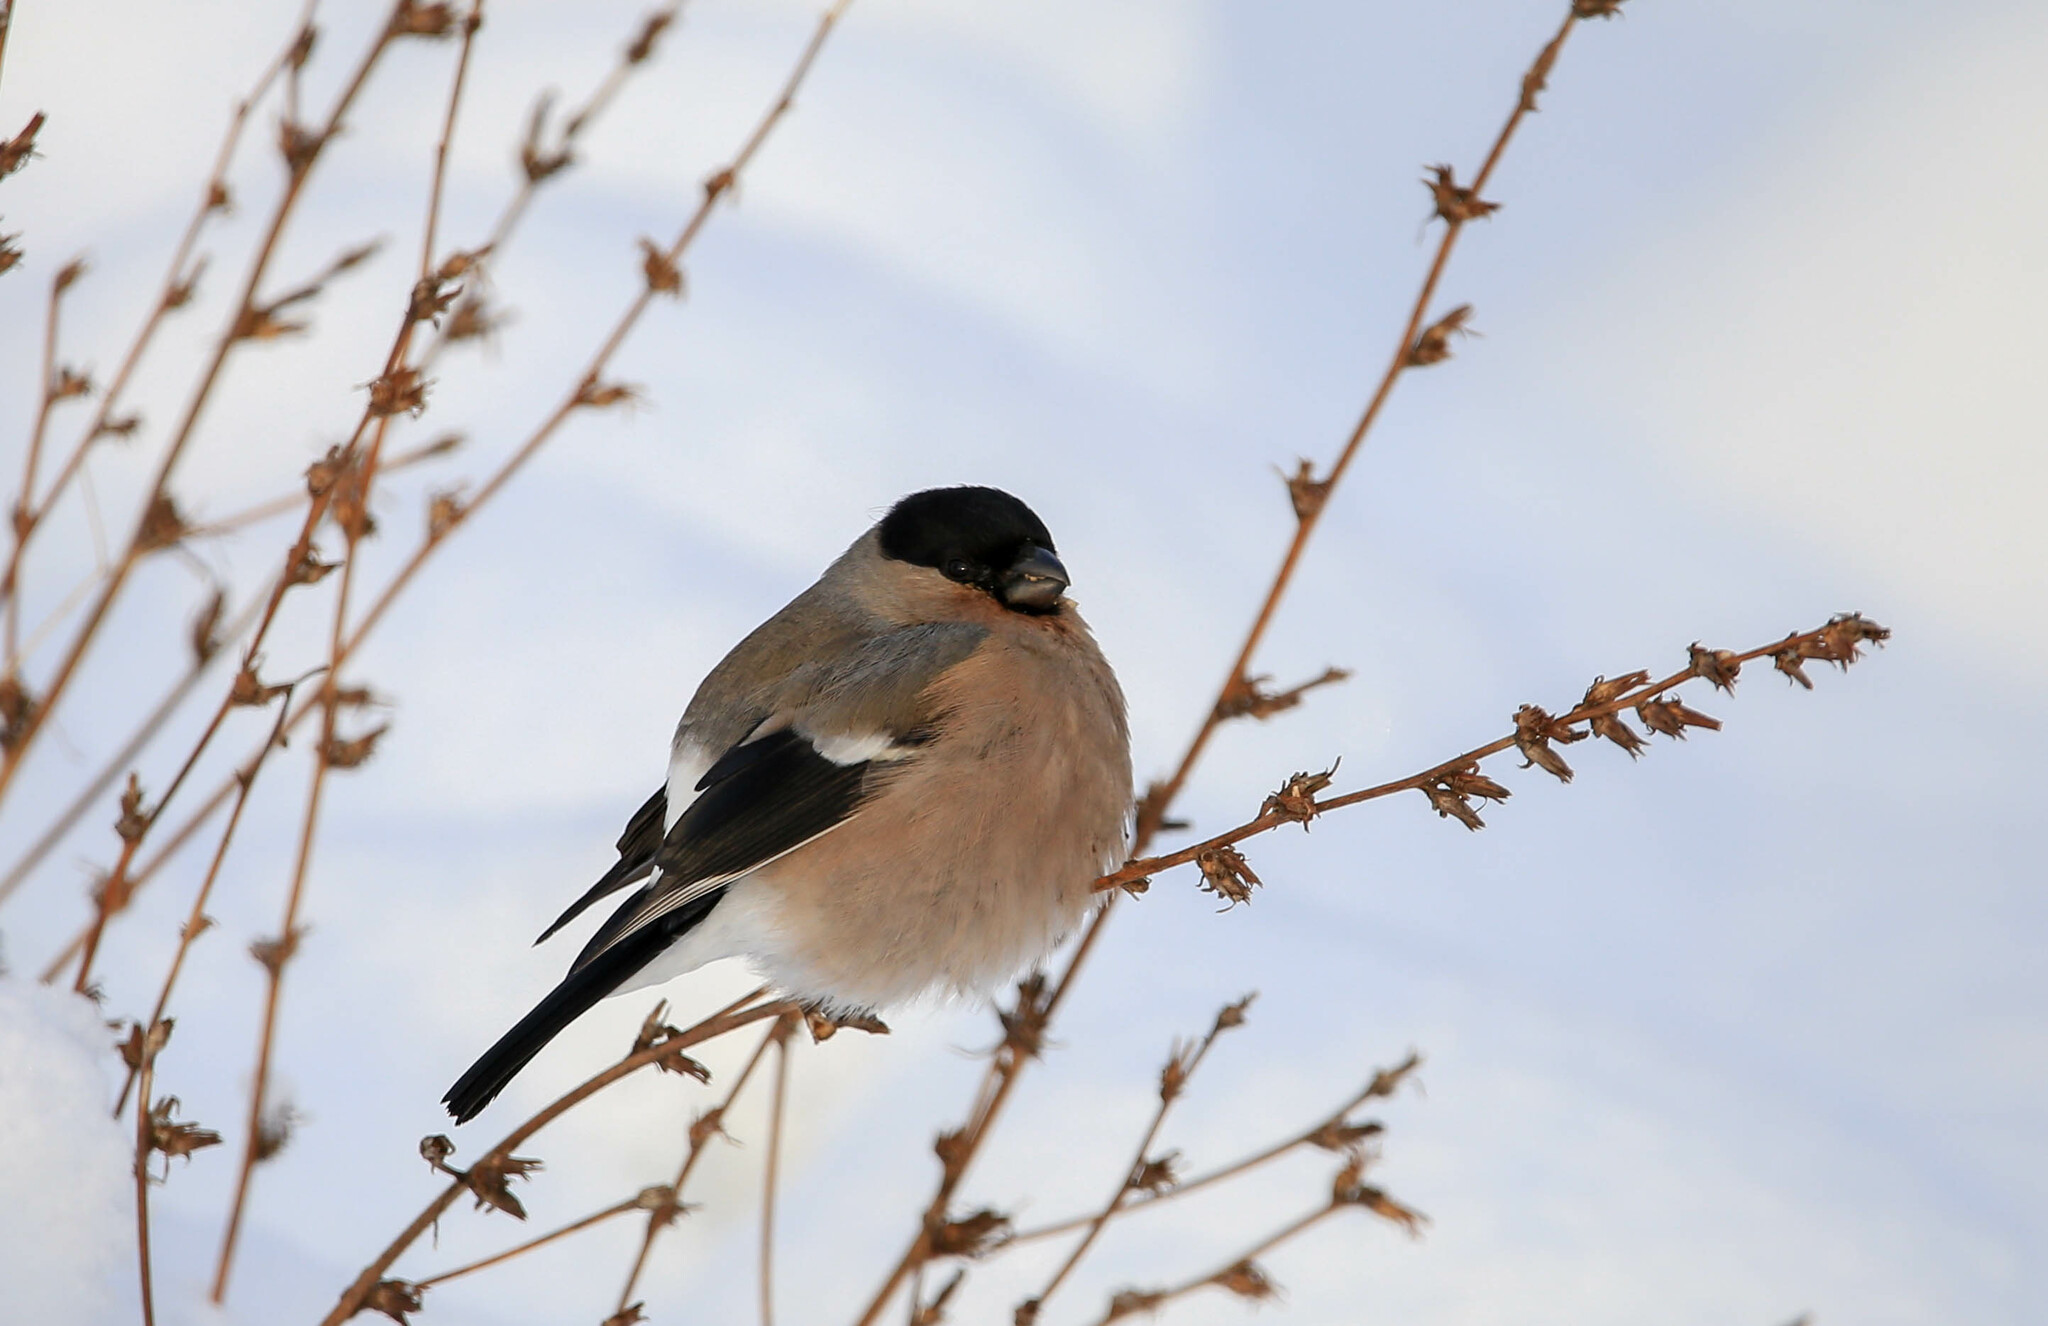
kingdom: Animalia
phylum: Chordata
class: Aves
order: Passeriformes
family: Fringillidae
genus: Pyrrhula
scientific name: Pyrrhula pyrrhula
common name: Eurasian bullfinch
